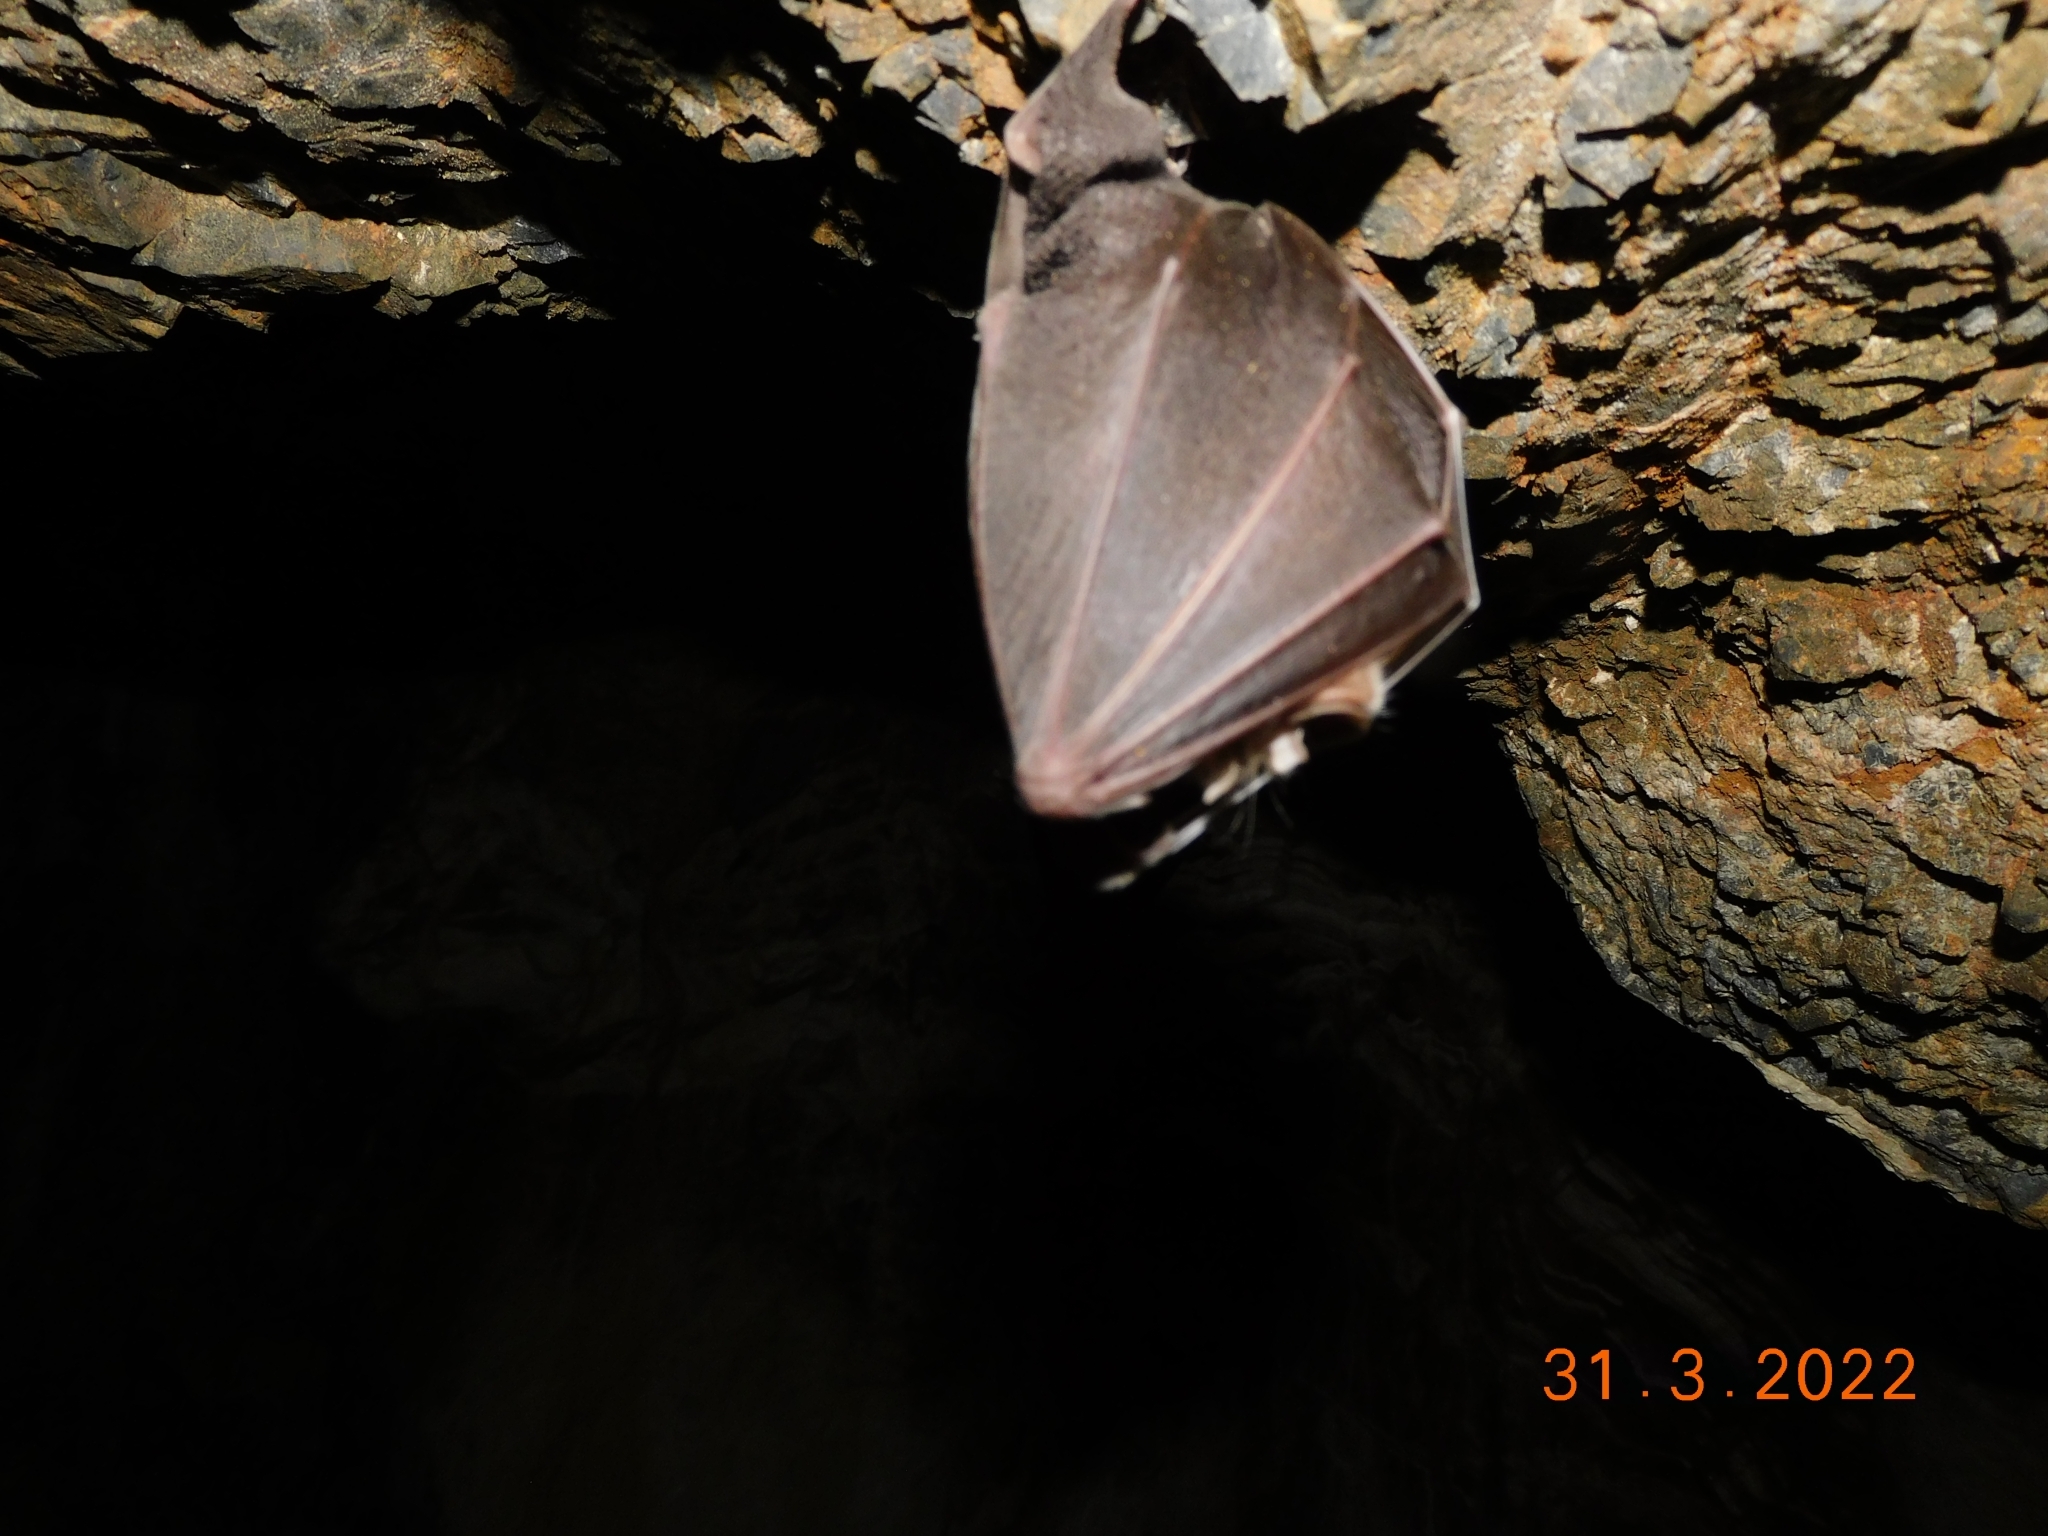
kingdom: Animalia
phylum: Chordata
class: Mammalia
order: Chiroptera
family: Rhinolophidae
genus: Rhinolophus
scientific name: Rhinolophus ferrumequinum
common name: Greater horseshoe bat
